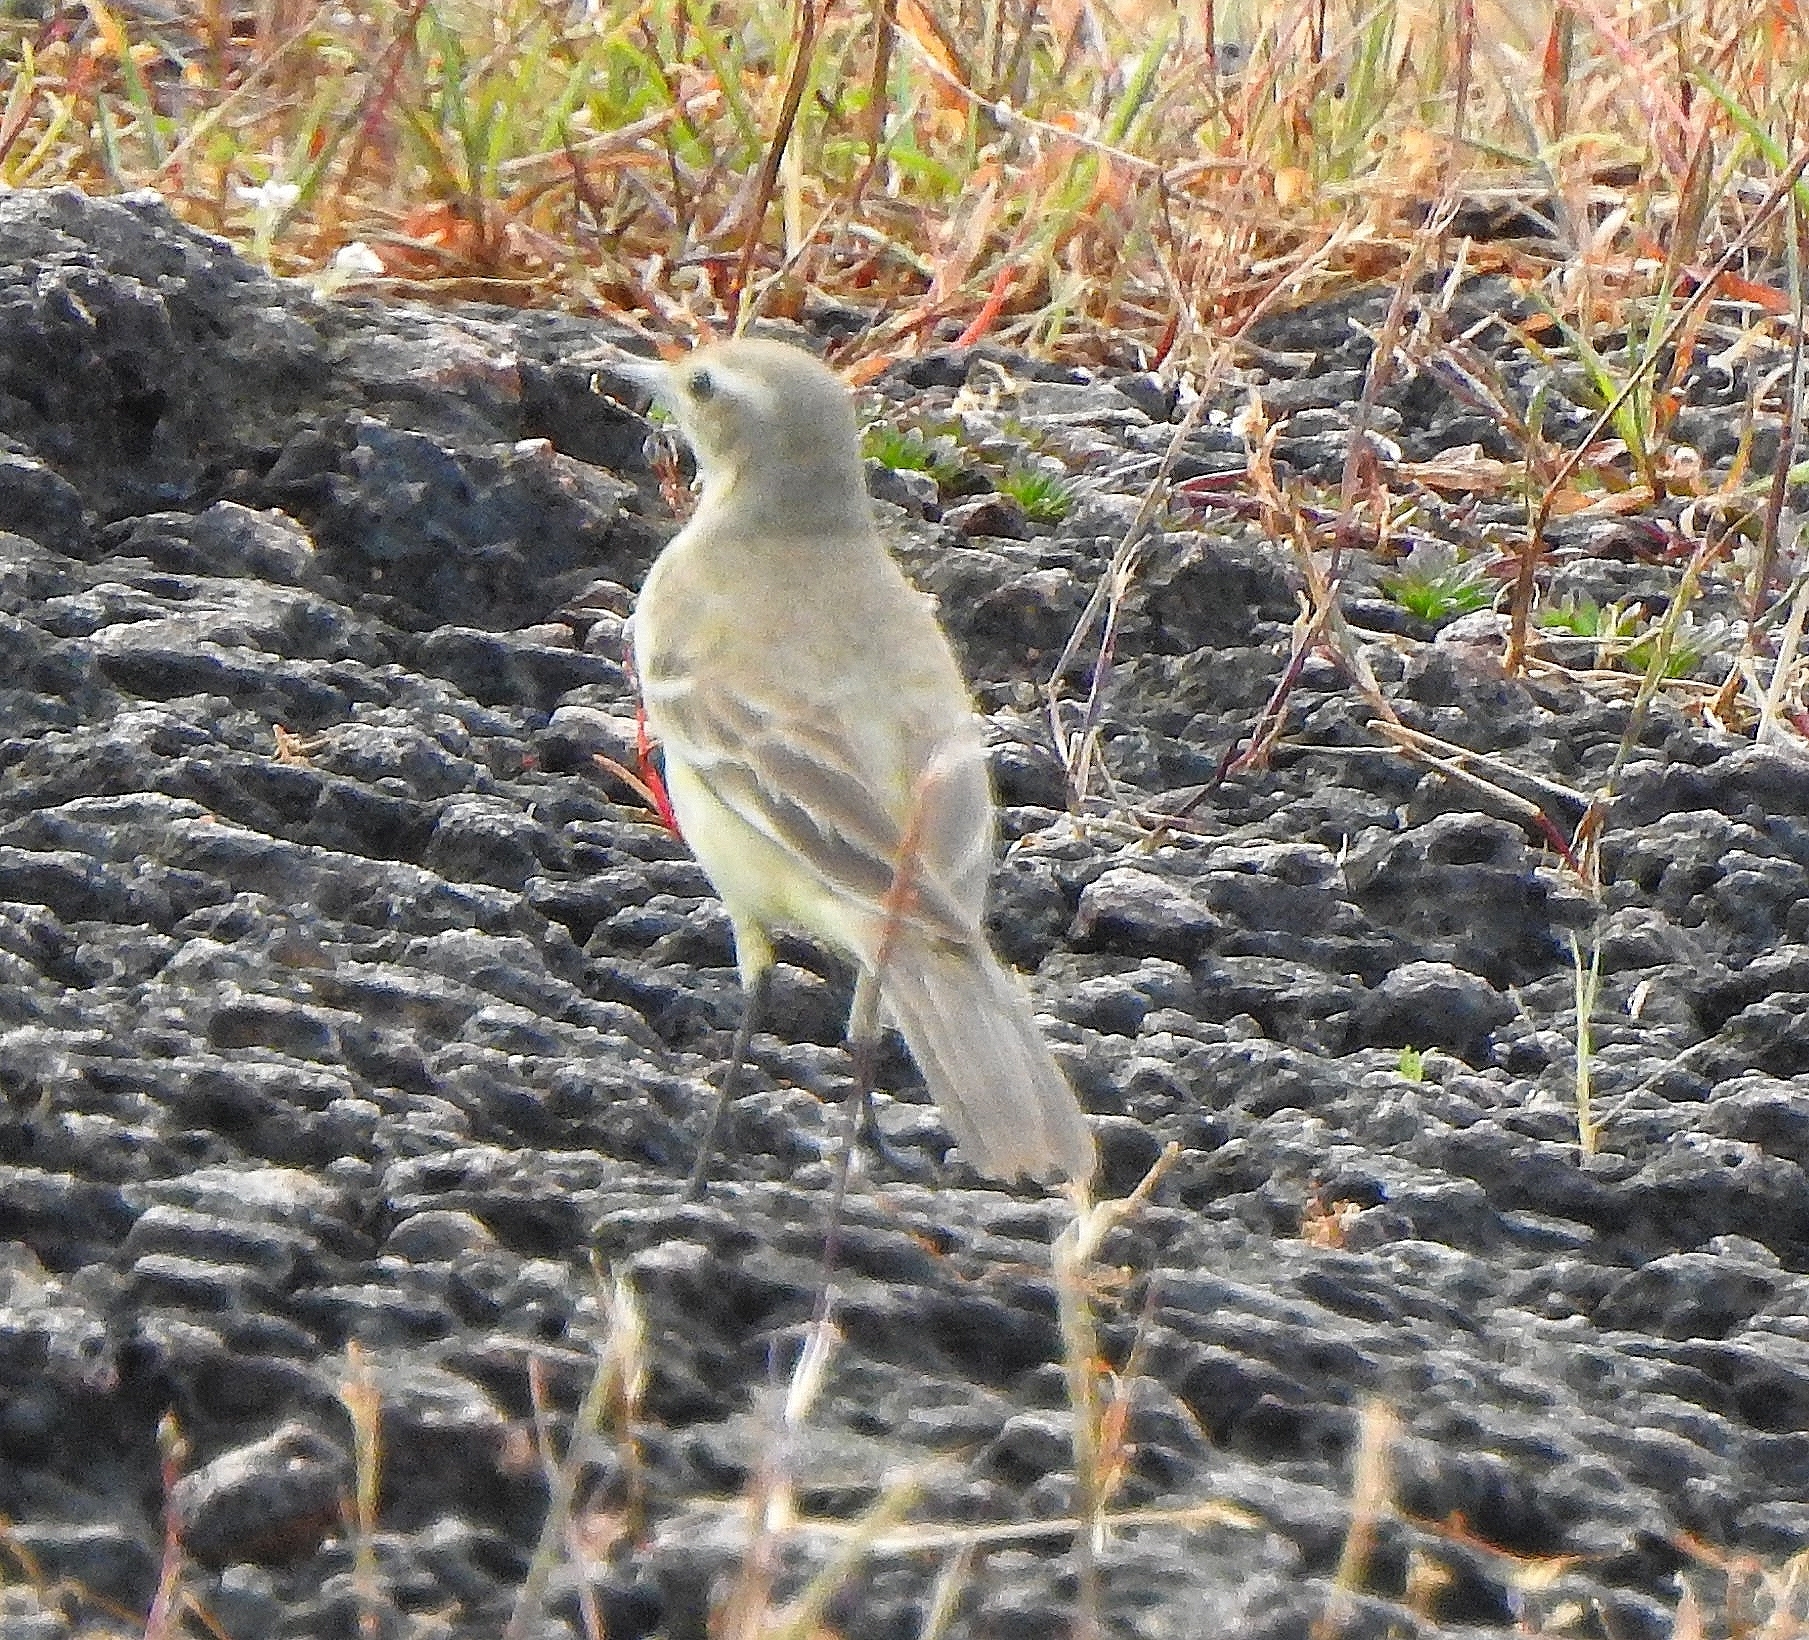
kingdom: Animalia
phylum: Chordata
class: Aves
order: Passeriformes
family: Motacillidae
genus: Motacilla
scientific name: Motacilla flava
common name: Western yellow wagtail
